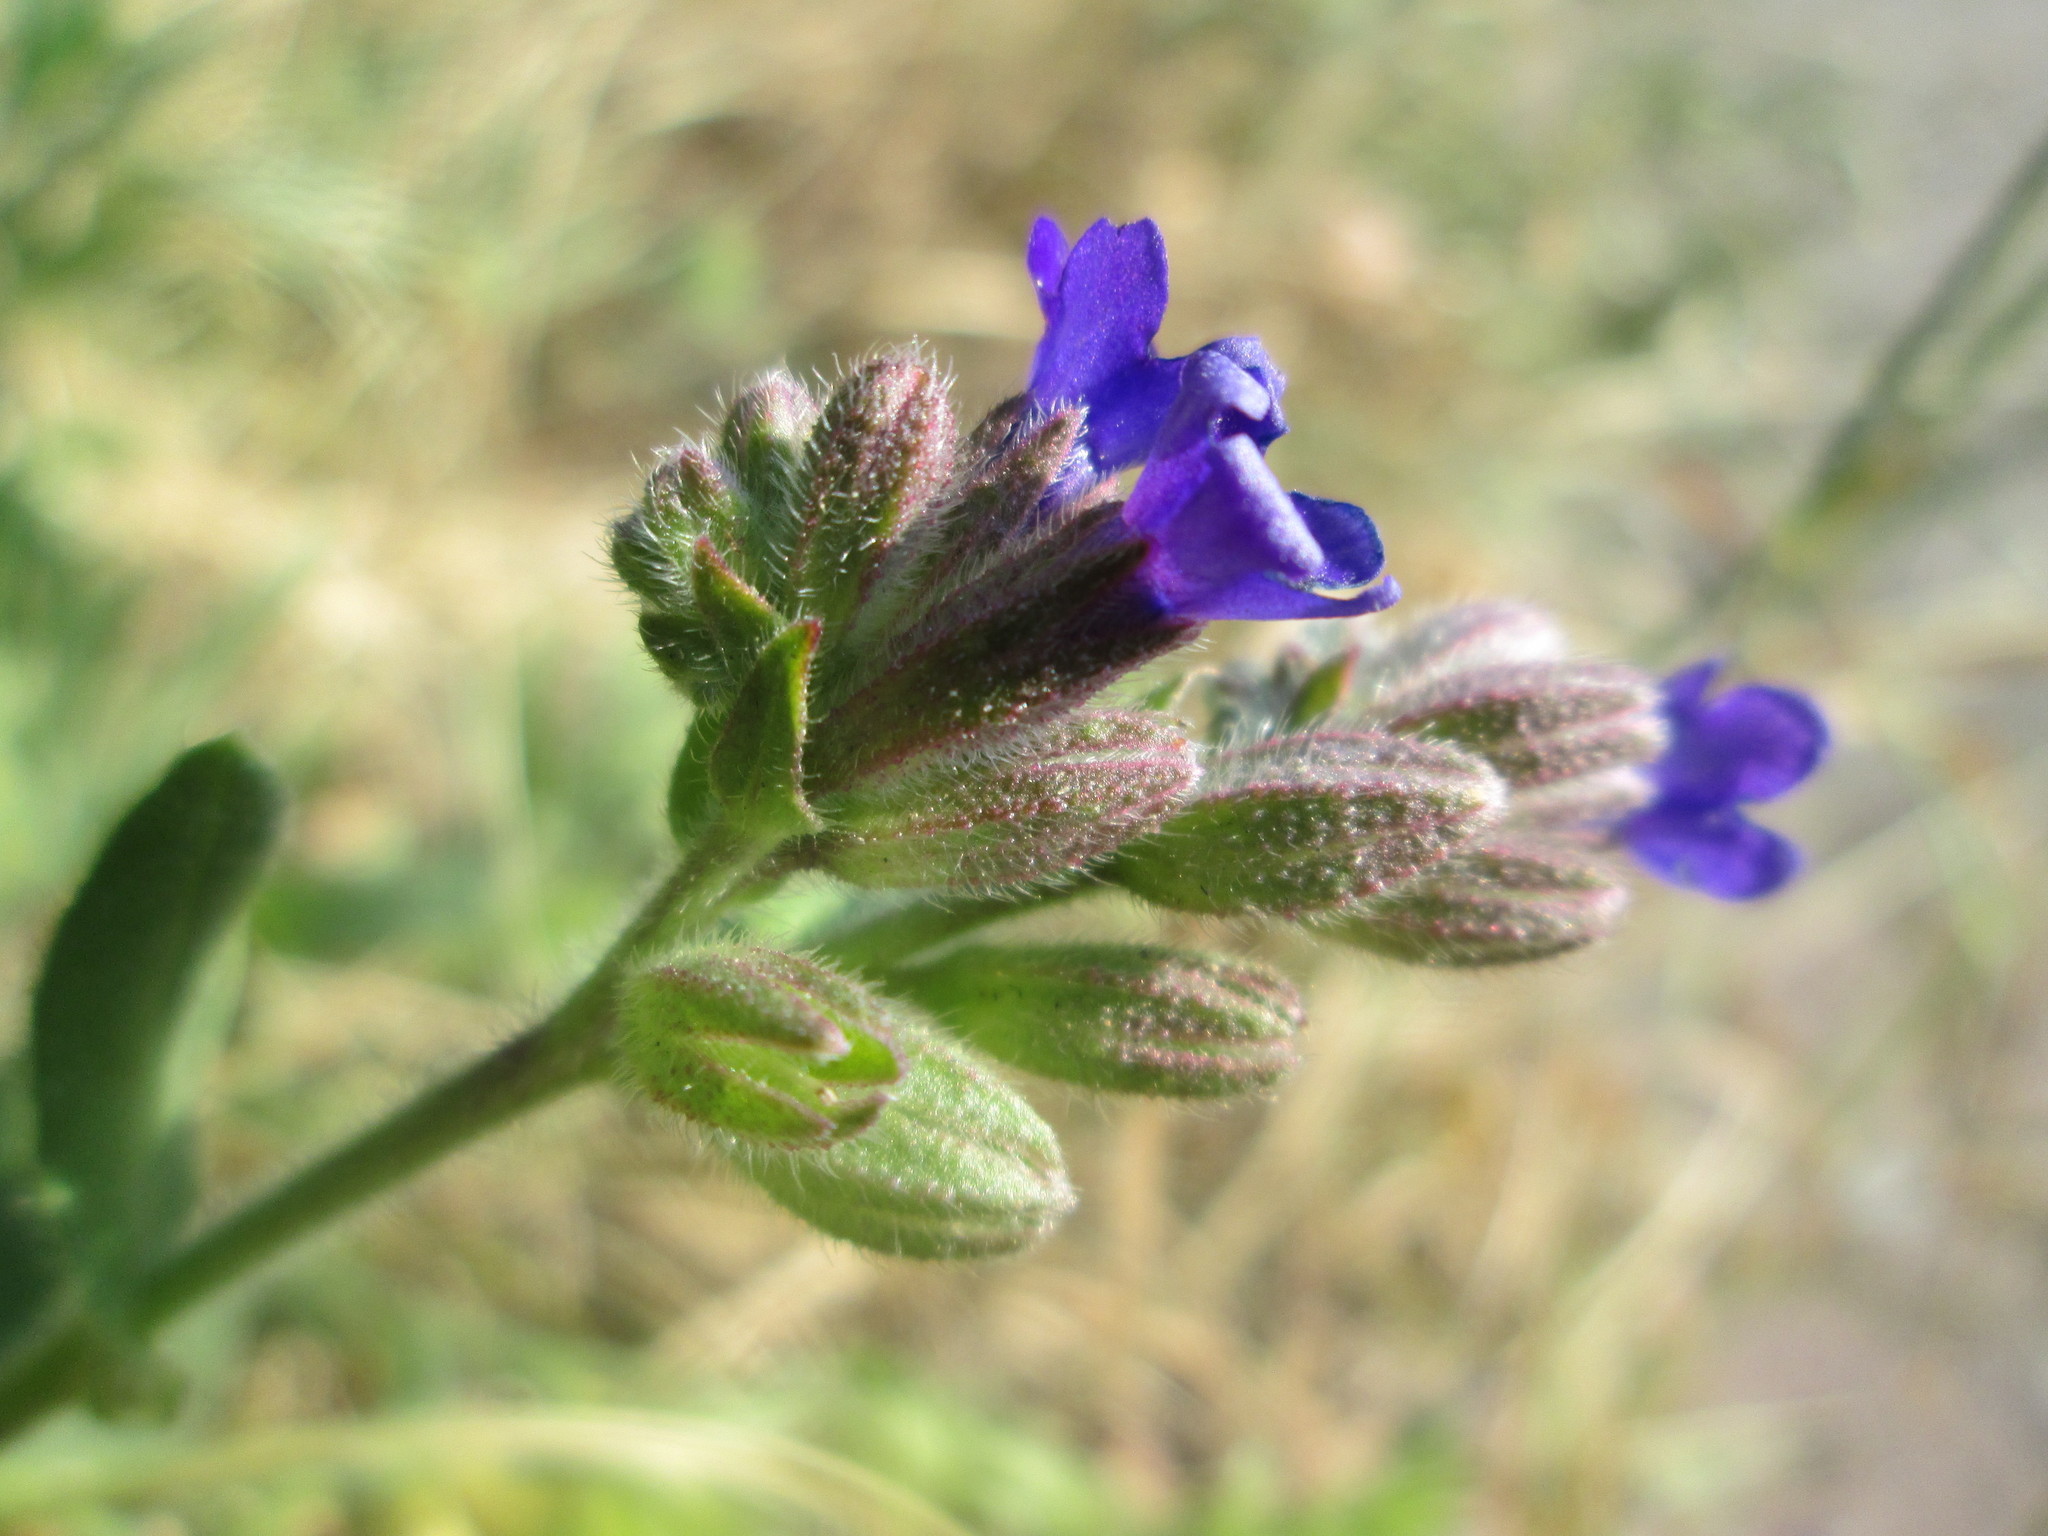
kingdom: Plantae
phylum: Tracheophyta
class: Magnoliopsida
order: Boraginales
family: Boraginaceae
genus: Anchusa
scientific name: Anchusa officinalis
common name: Alkanet
